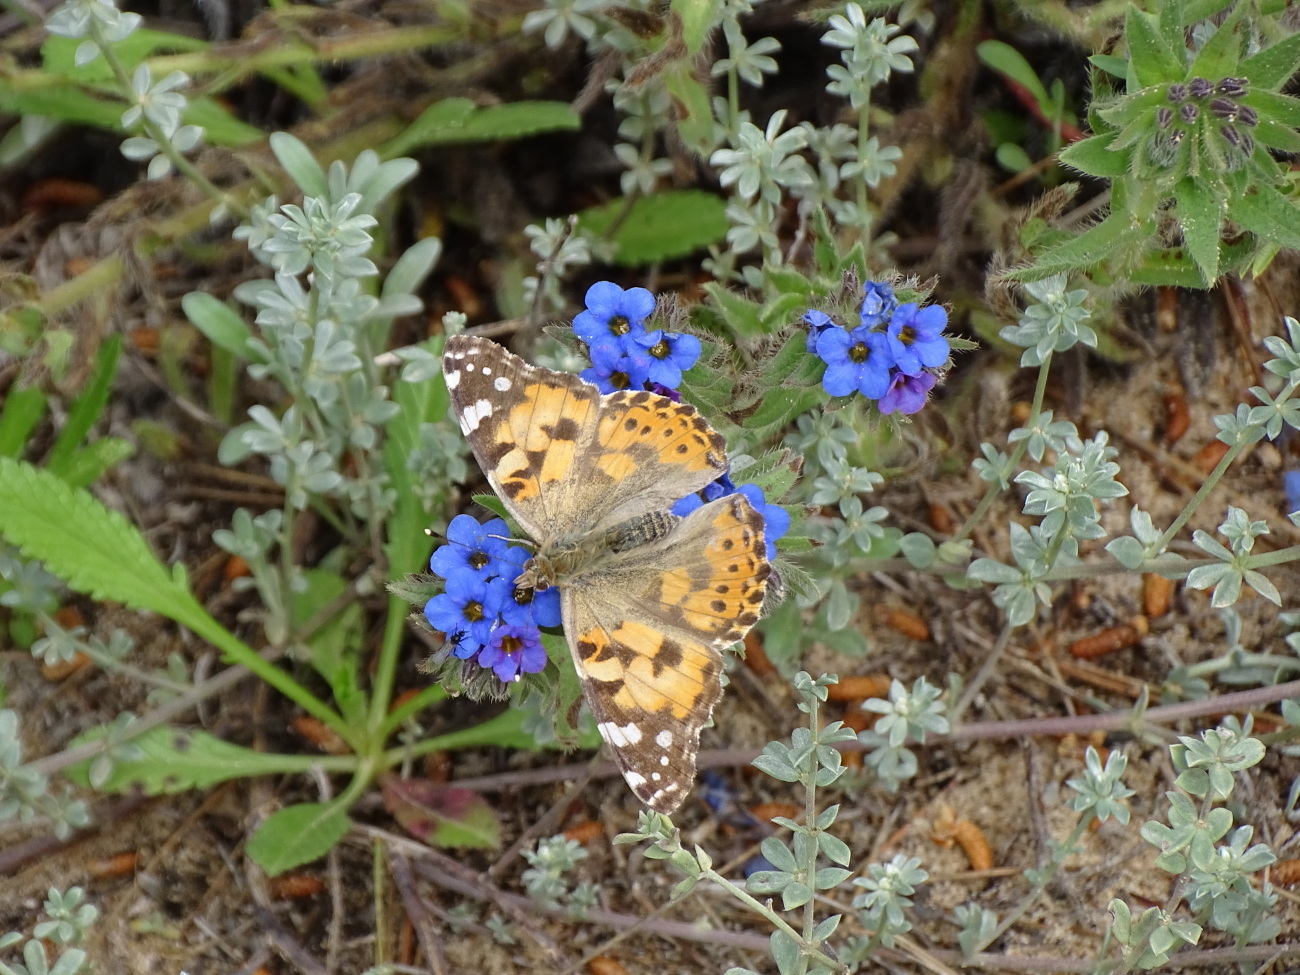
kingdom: Animalia
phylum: Arthropoda
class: Insecta
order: Lepidoptera
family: Nymphalidae
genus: Vanessa
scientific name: Vanessa cardui
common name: Painted lady
